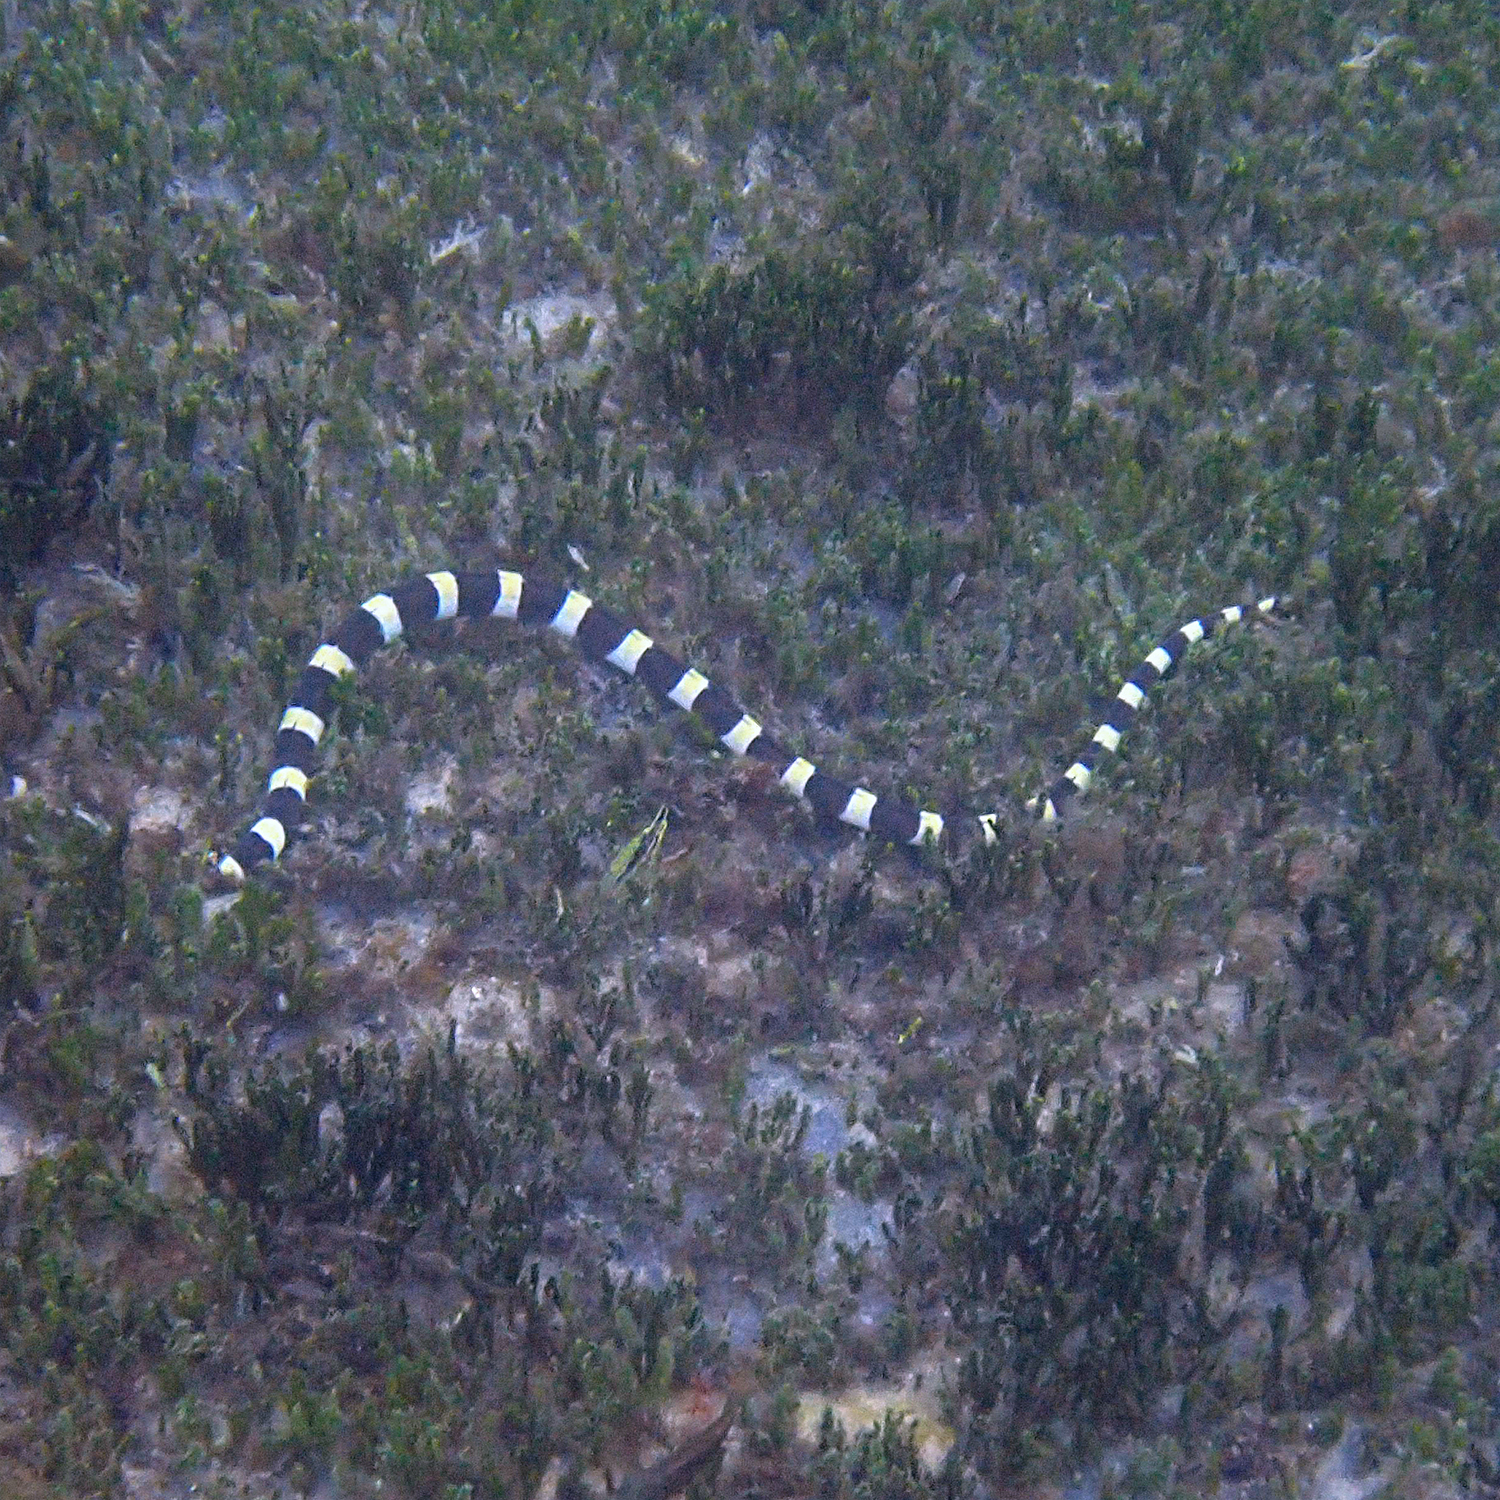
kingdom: Animalia
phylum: Chordata
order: Anguilliformes
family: Ophichthidae
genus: Leiuranus
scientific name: Leiuranus semicinctus
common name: Saddled snake eel
